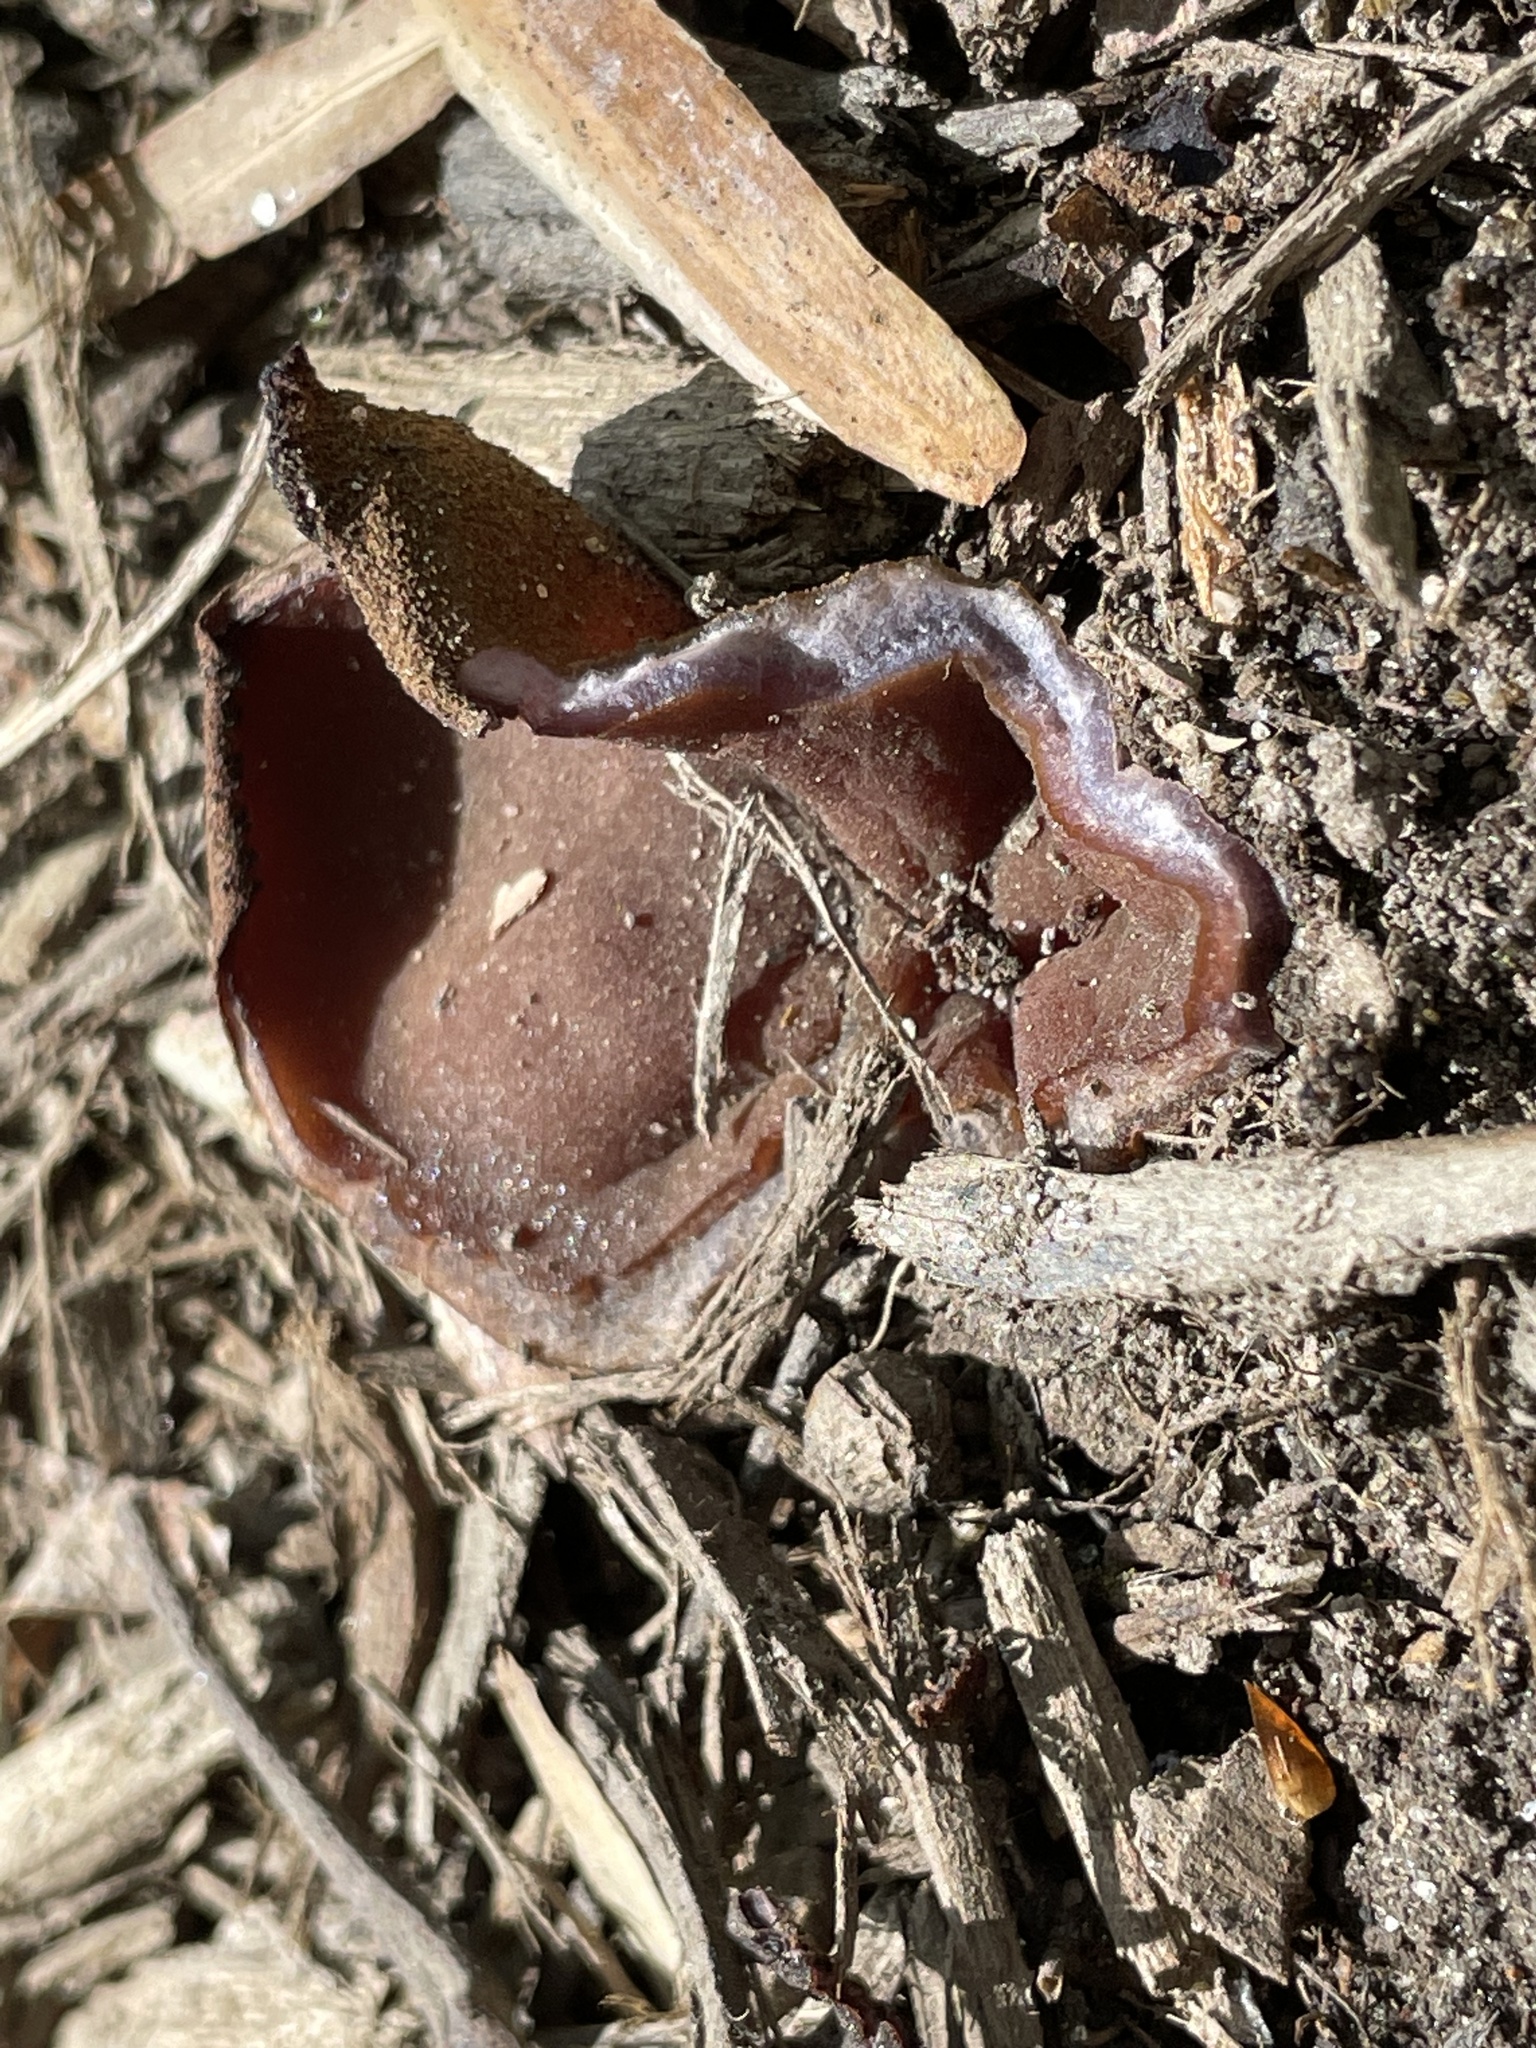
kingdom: Fungi
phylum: Ascomycota
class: Pezizomycetes
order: Pezizales
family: Pezizaceae
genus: Phylloscypha
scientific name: Phylloscypha phyllogena
